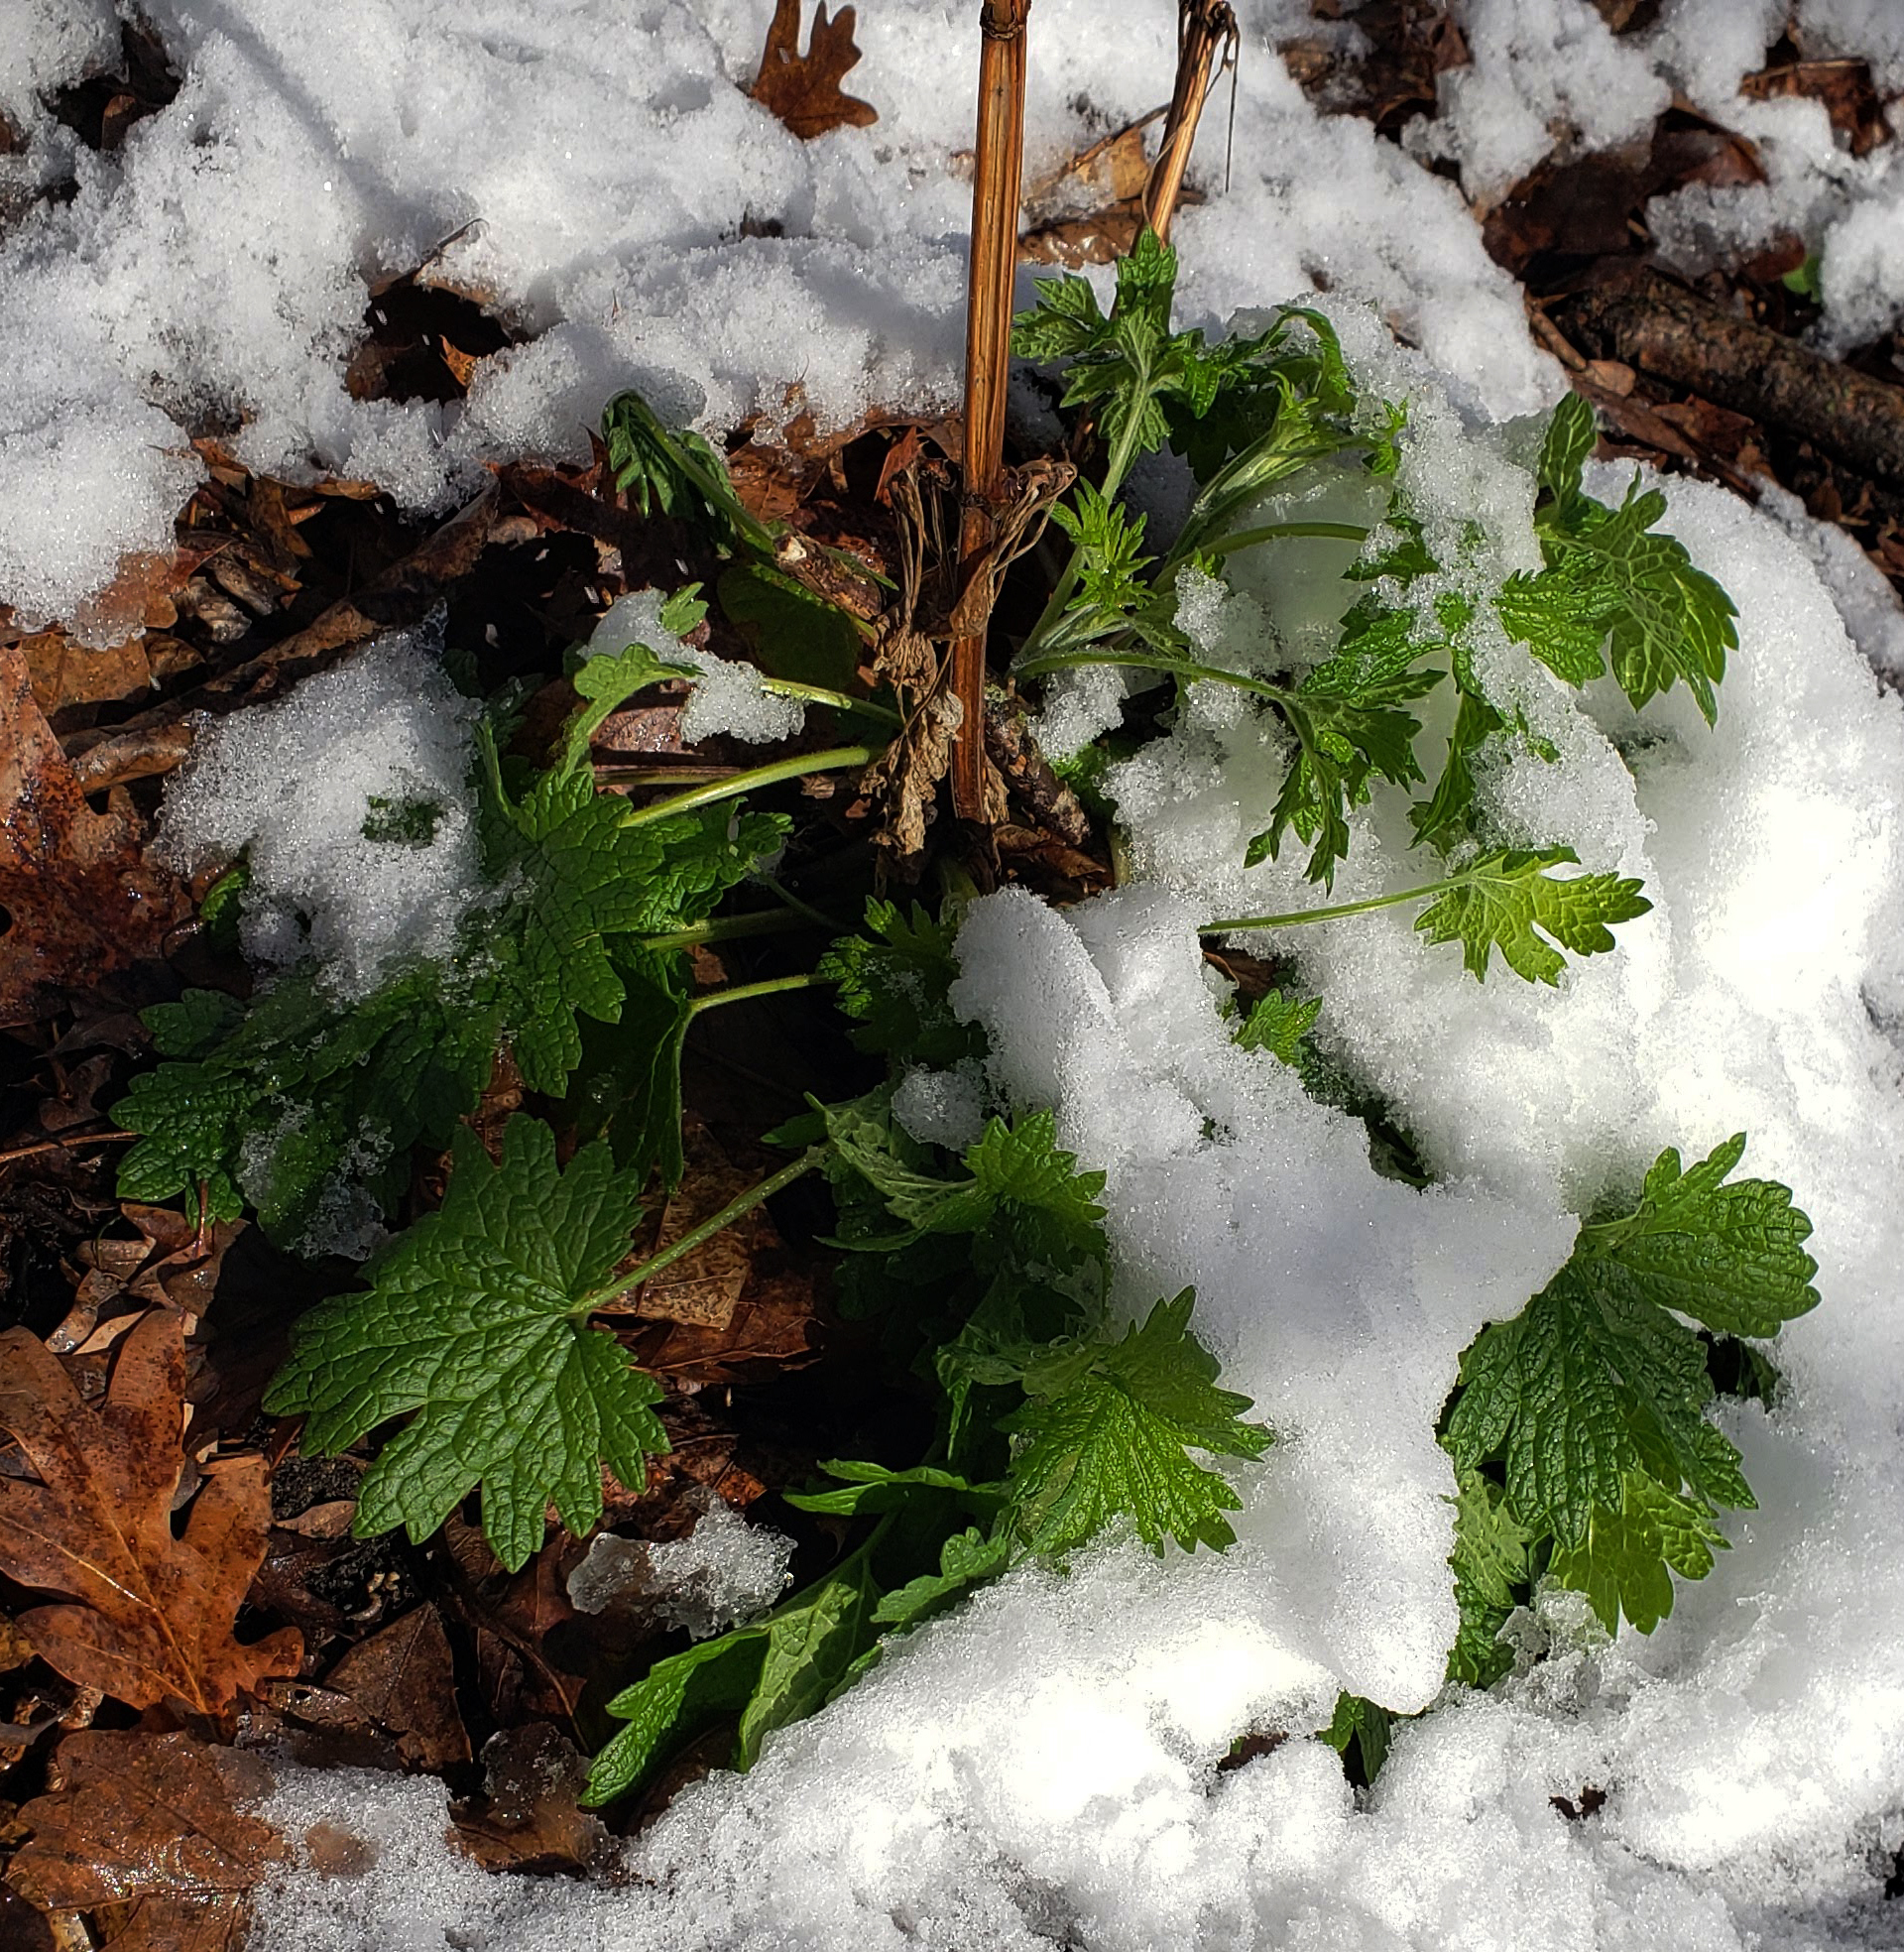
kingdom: Plantae
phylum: Tracheophyta
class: Magnoliopsida
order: Lamiales
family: Lamiaceae
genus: Leonurus
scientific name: Leonurus cardiaca
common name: Motherwort
